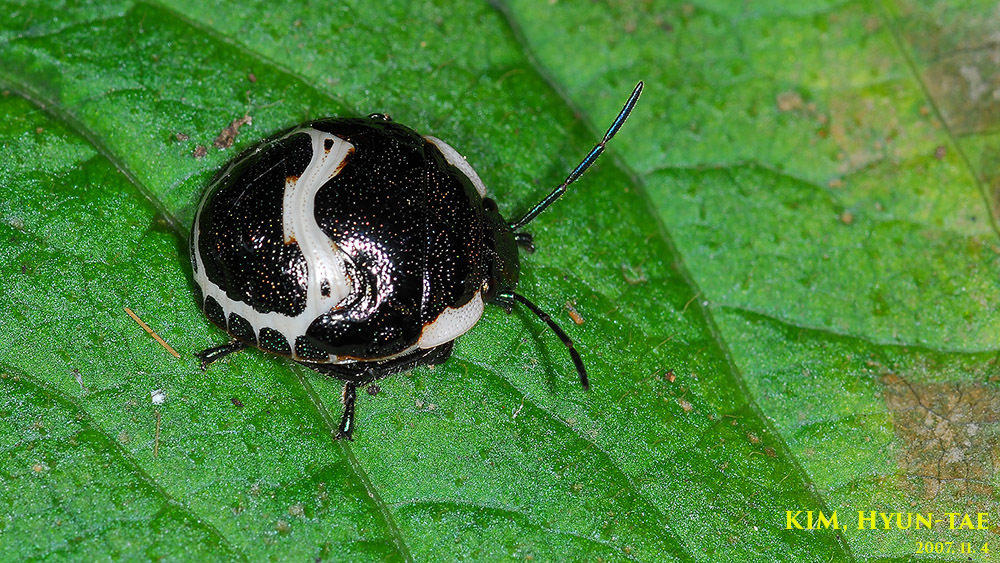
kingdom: Animalia
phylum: Arthropoda
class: Insecta
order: Hemiptera
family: Scutelleridae
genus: Poecilocoris
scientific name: Poecilocoris lewisi
